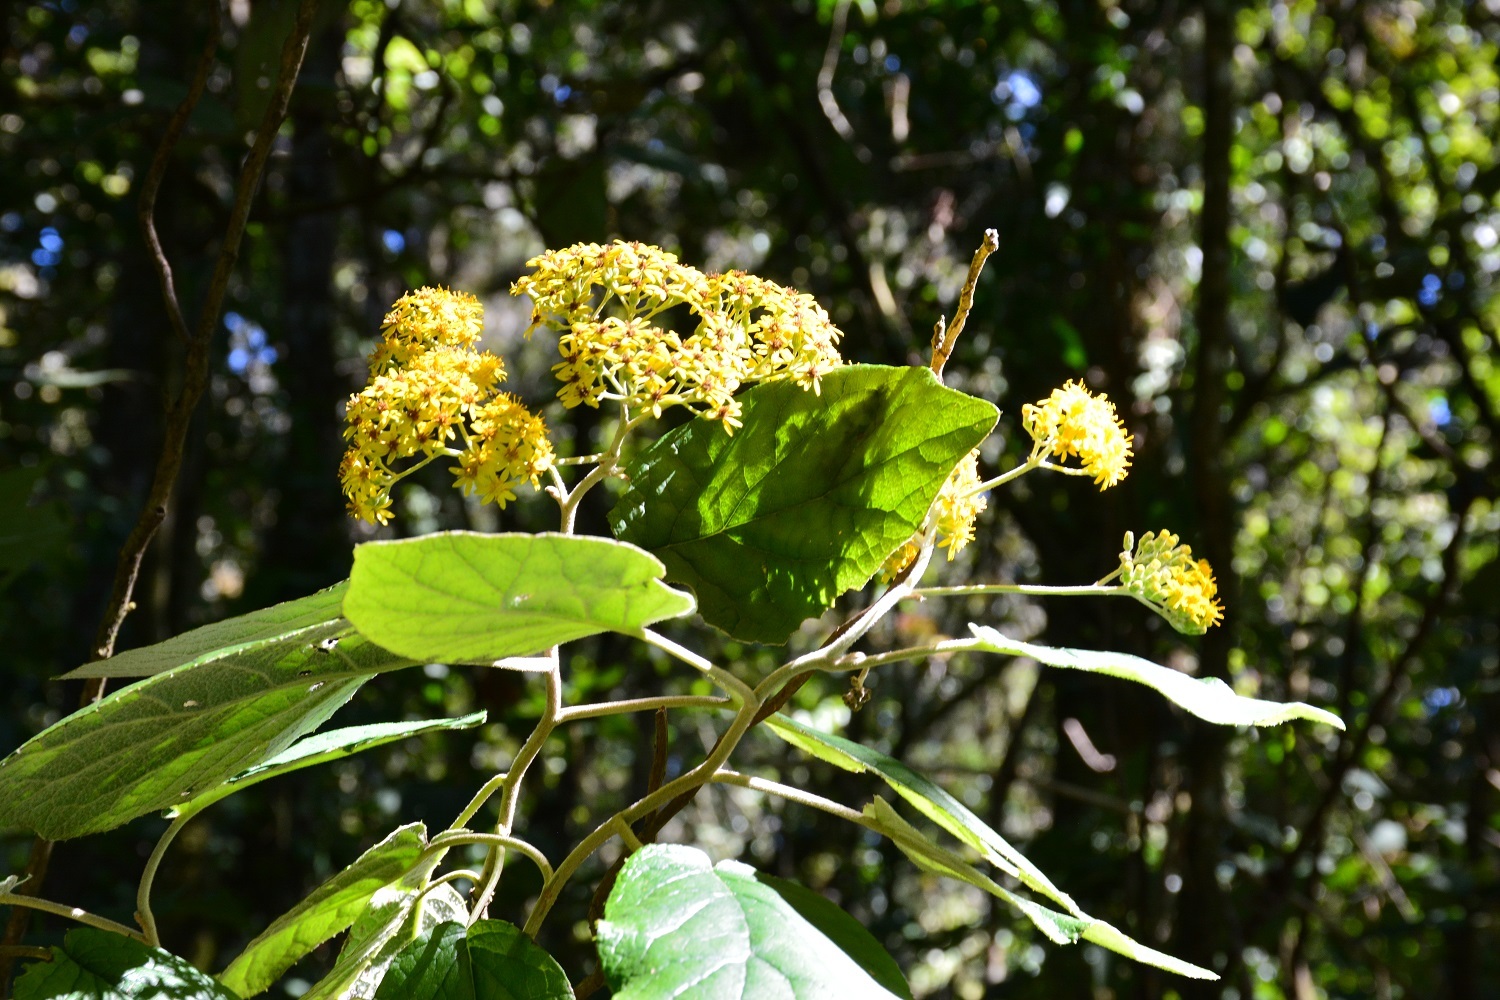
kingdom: Plantae
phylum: Tracheophyta
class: Magnoliopsida
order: Asterales
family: Asteraceae
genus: Roldana
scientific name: Roldana barba-johannis
